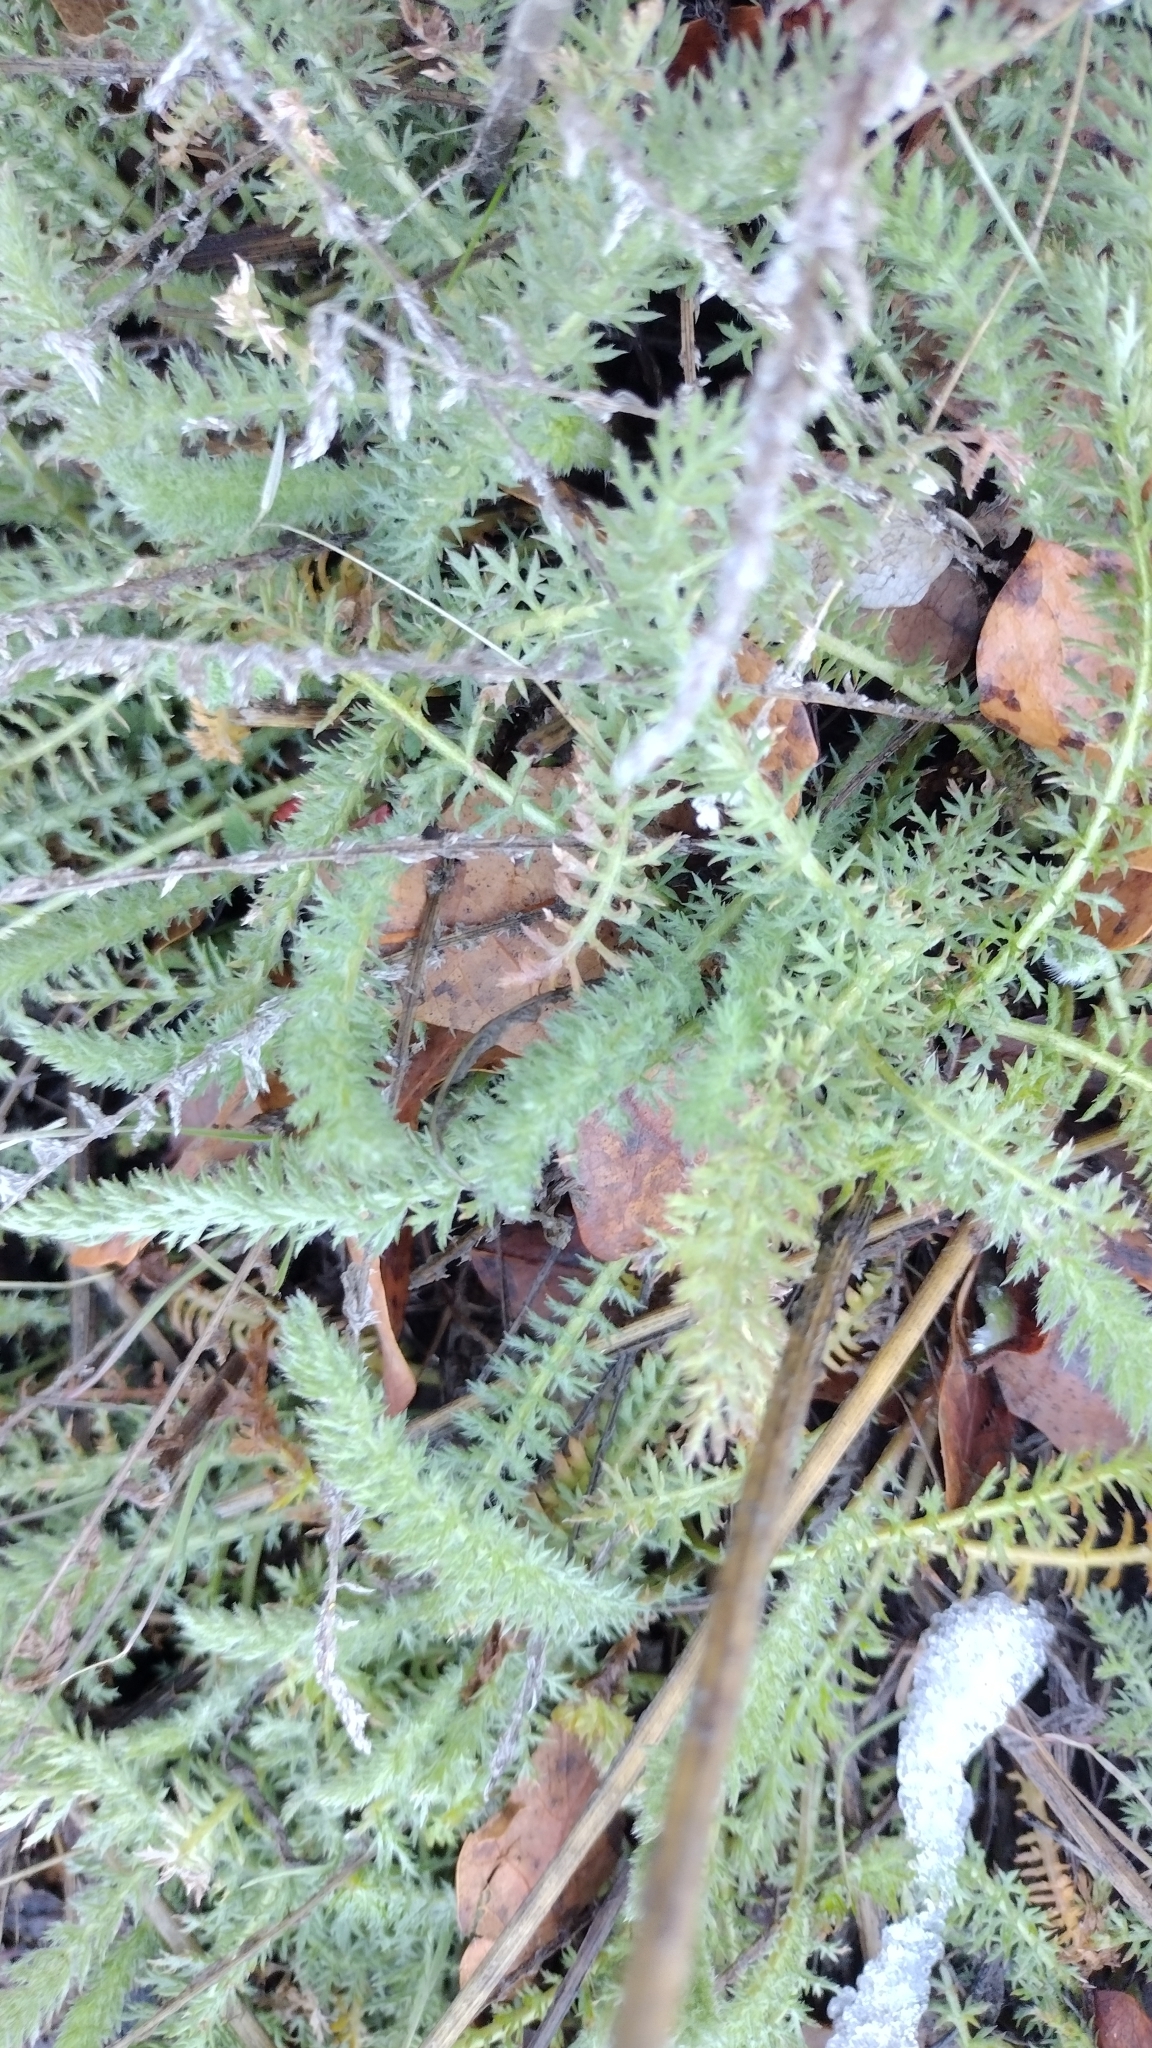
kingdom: Plantae
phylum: Tracheophyta
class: Magnoliopsida
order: Asterales
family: Asteraceae
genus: Achillea
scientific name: Achillea millefolium
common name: Yarrow
